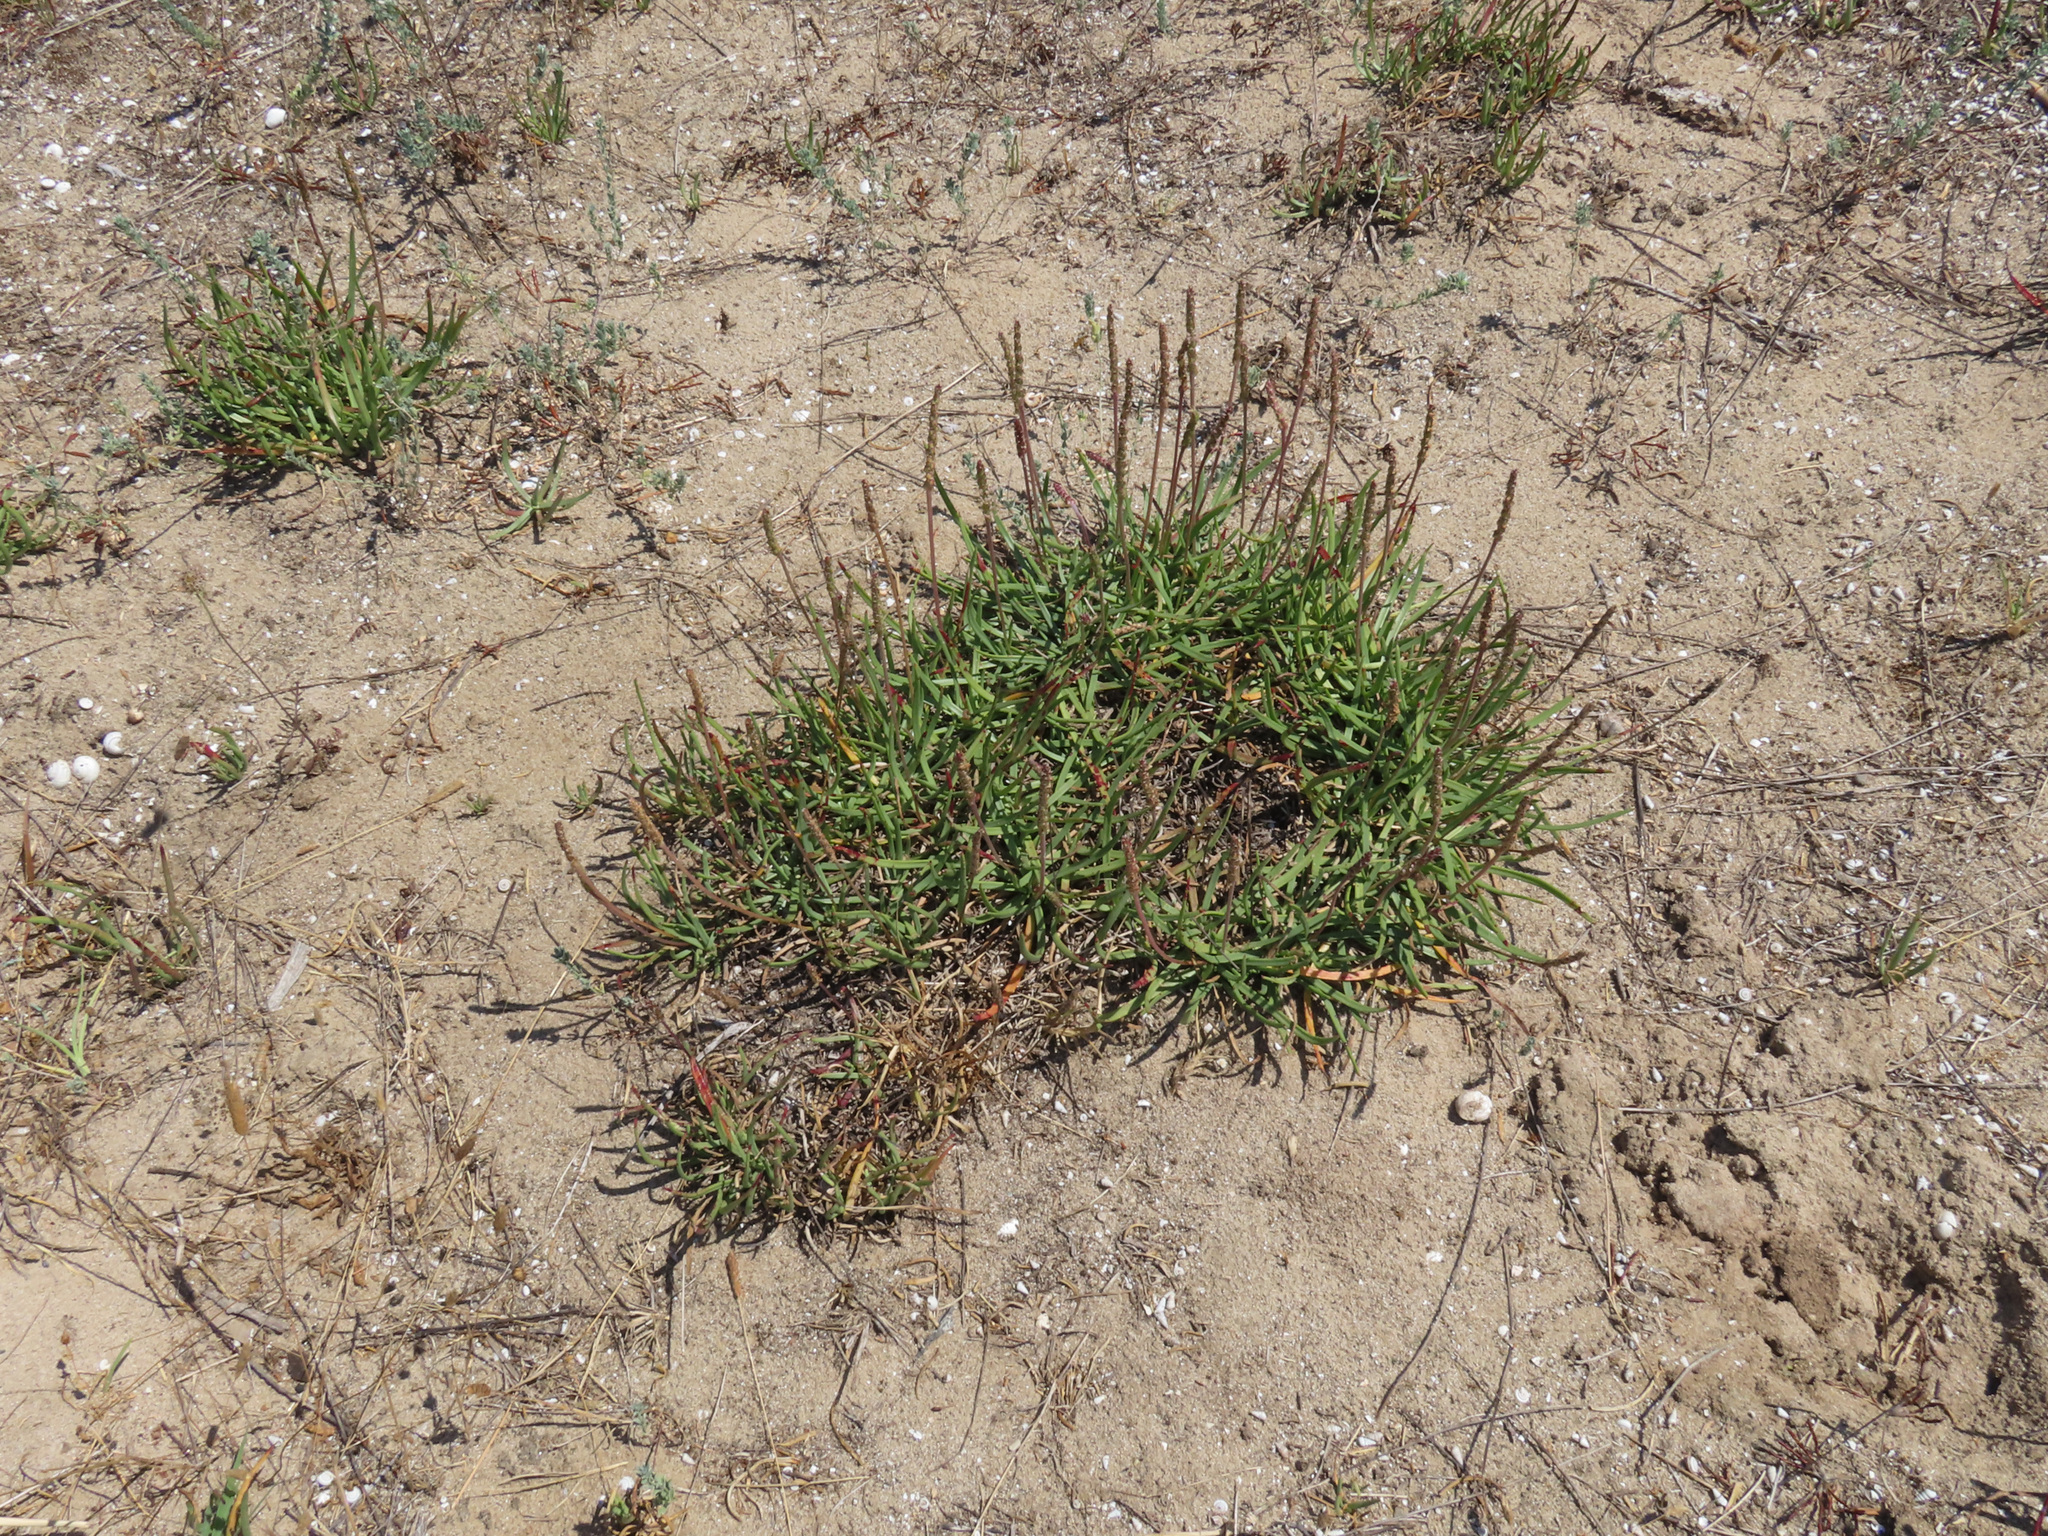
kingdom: Plantae
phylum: Tracheophyta
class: Magnoliopsida
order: Lamiales
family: Plantaginaceae
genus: Plantago
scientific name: Plantago crassifolia
